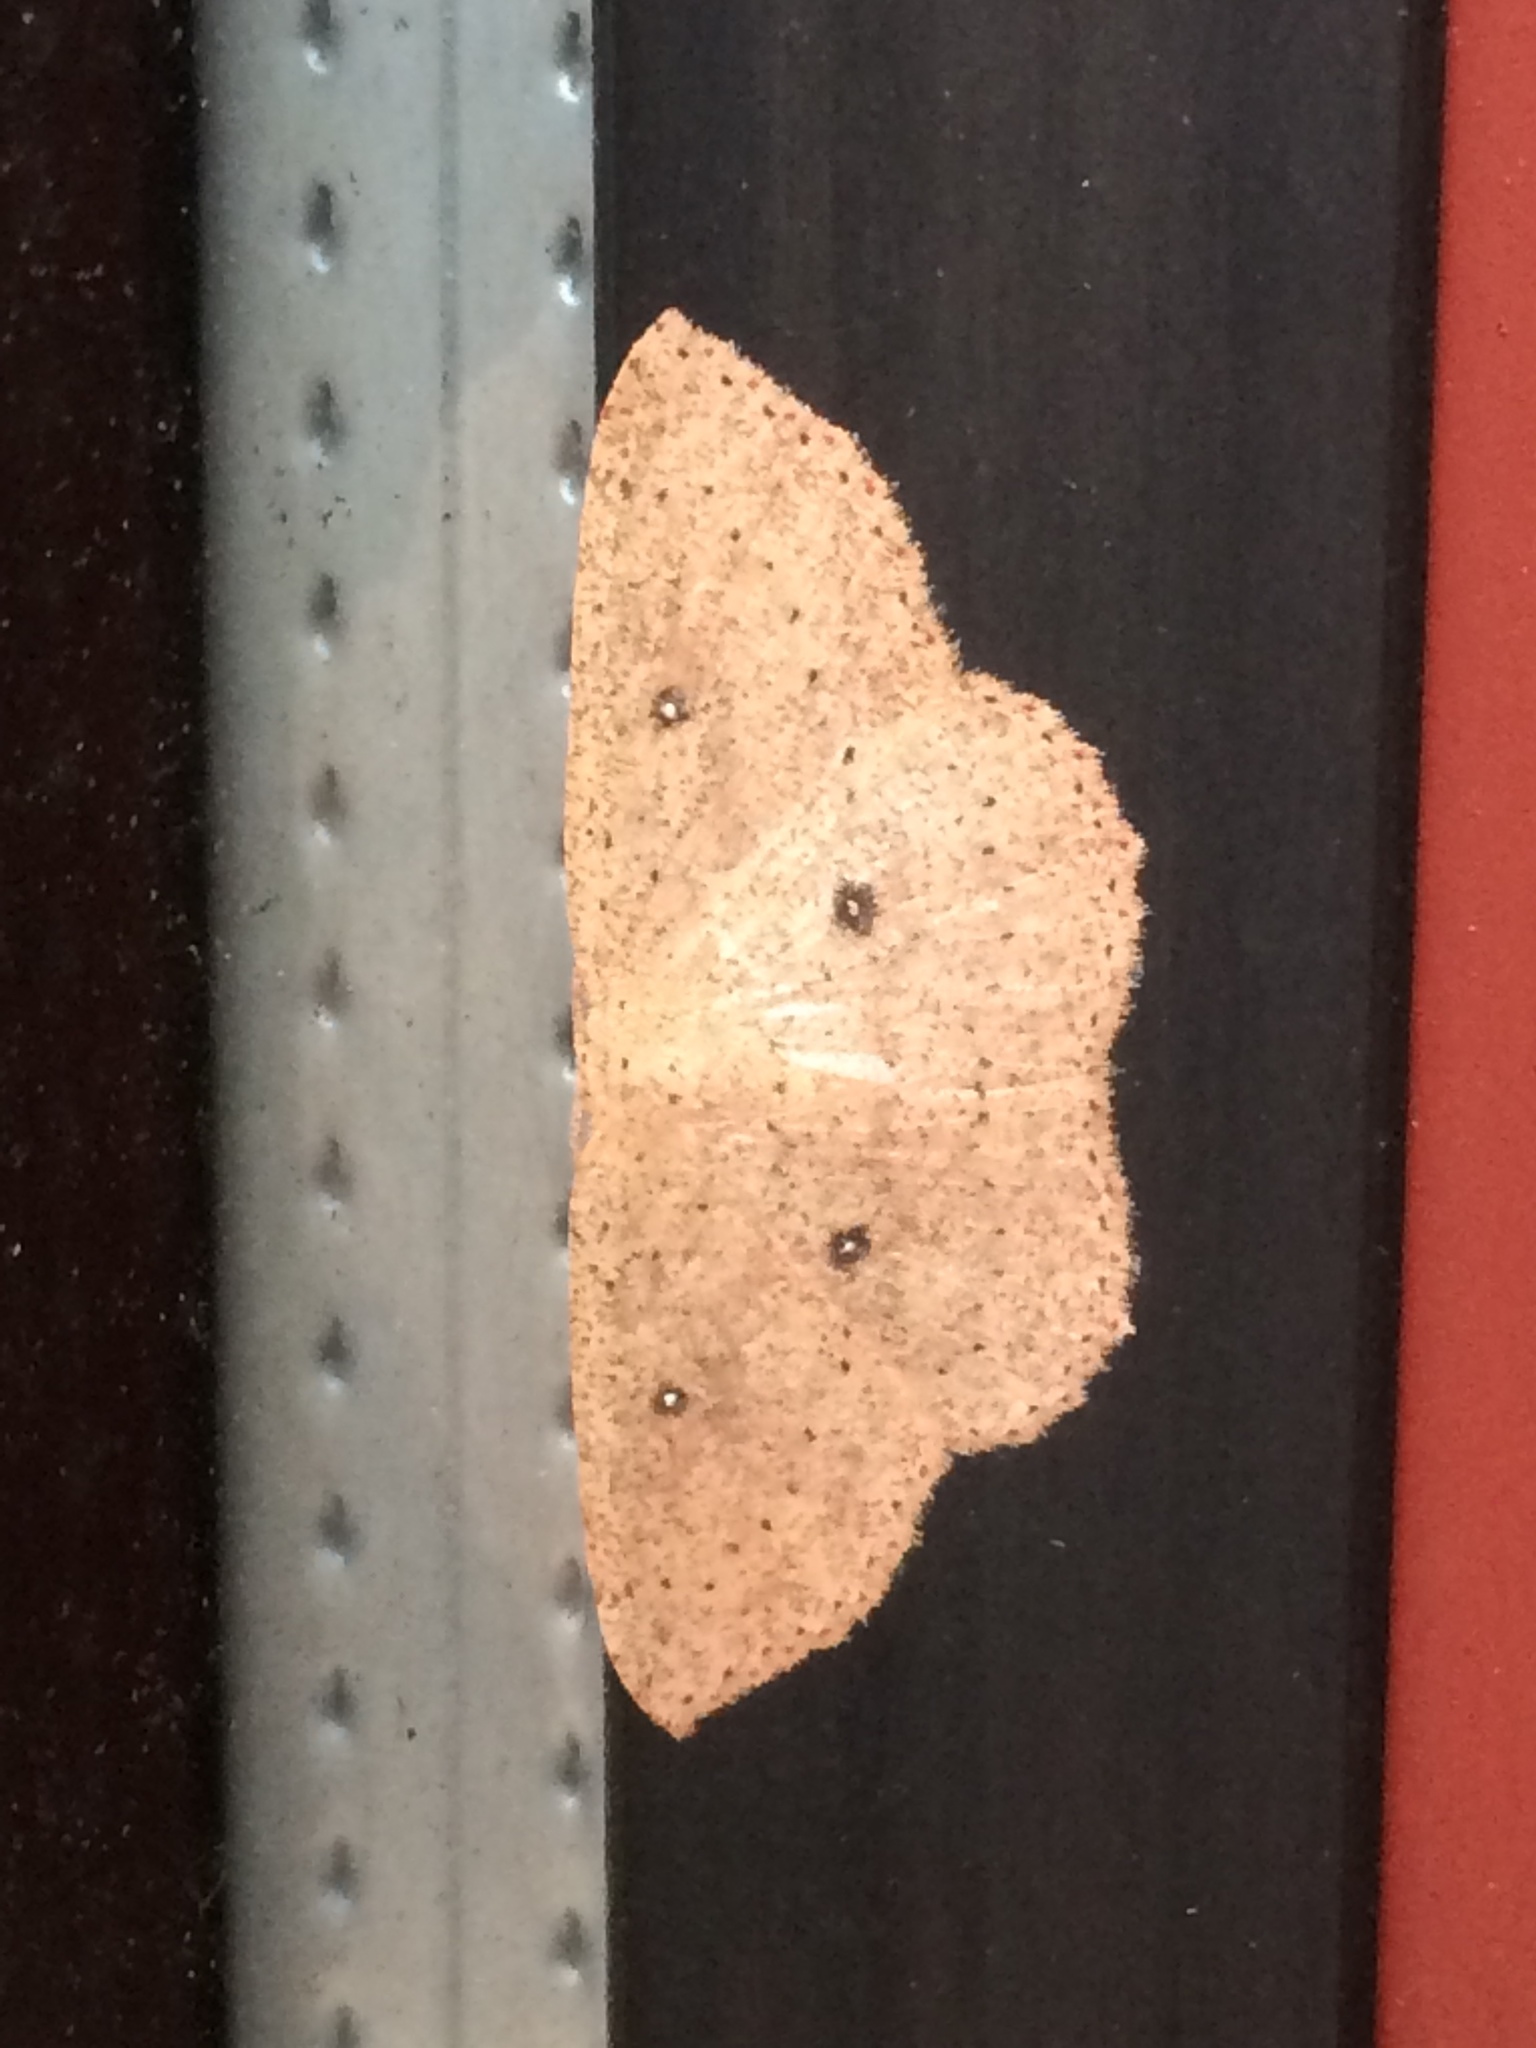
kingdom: Animalia
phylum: Arthropoda
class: Insecta
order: Lepidoptera
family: Geometridae
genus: Cyclophora
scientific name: Cyclophora myrtaria
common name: Waxmyrtle wave moth
